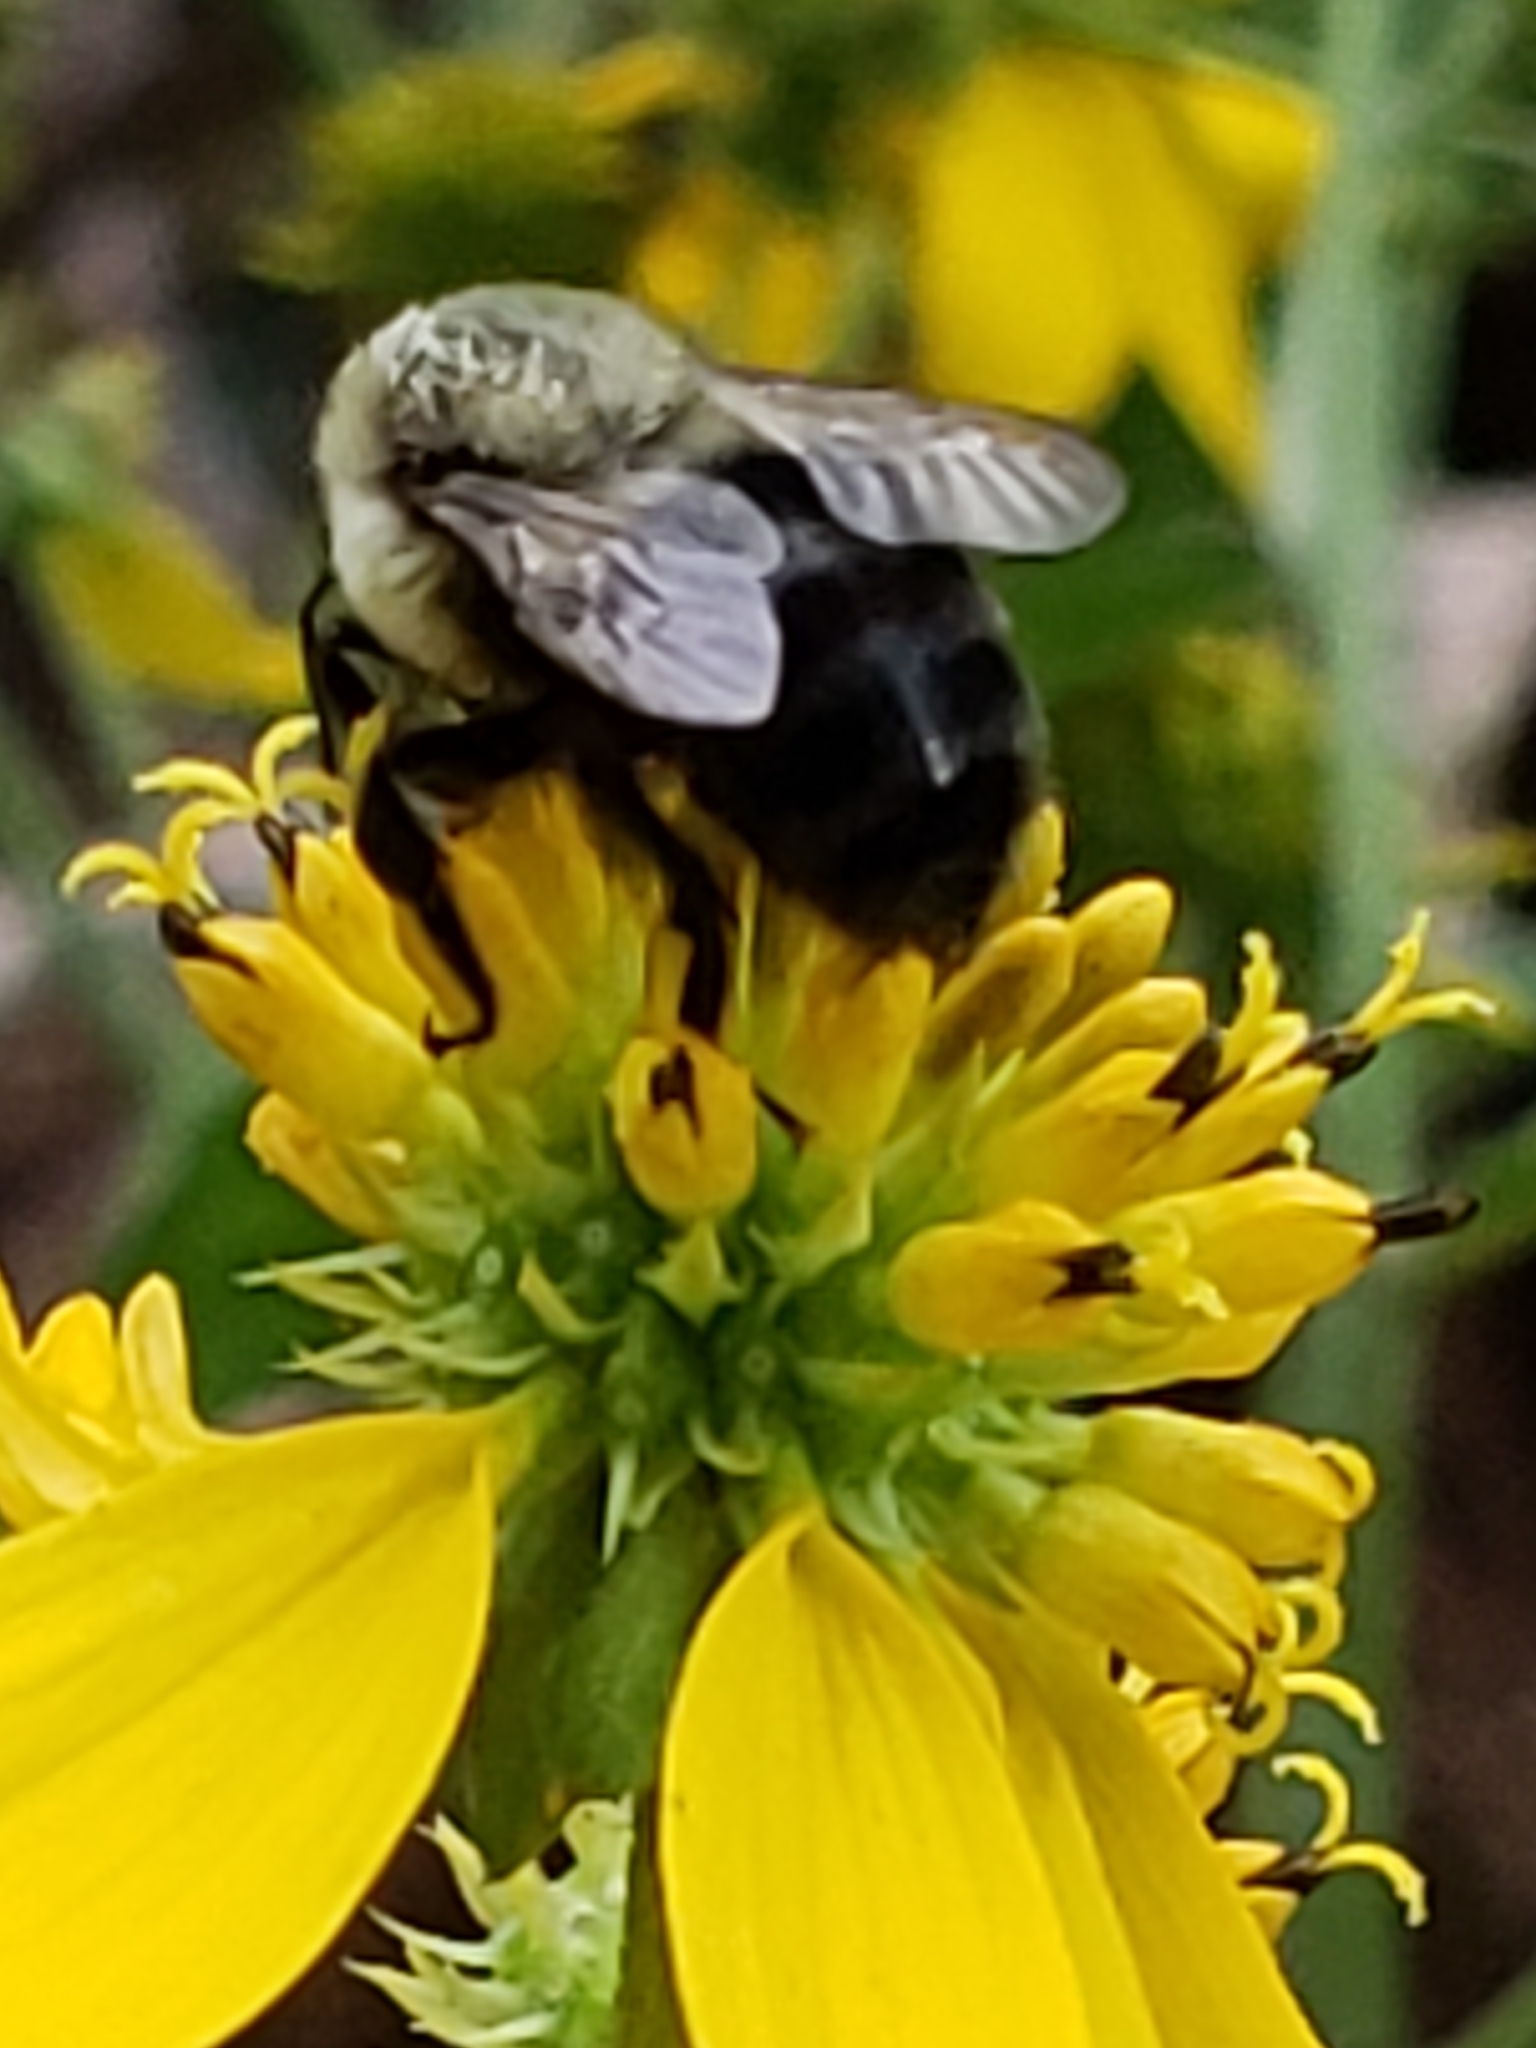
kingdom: Animalia
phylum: Arthropoda
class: Insecta
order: Hymenoptera
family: Apidae
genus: Bombus
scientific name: Bombus impatiens
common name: Common eastern bumble bee
